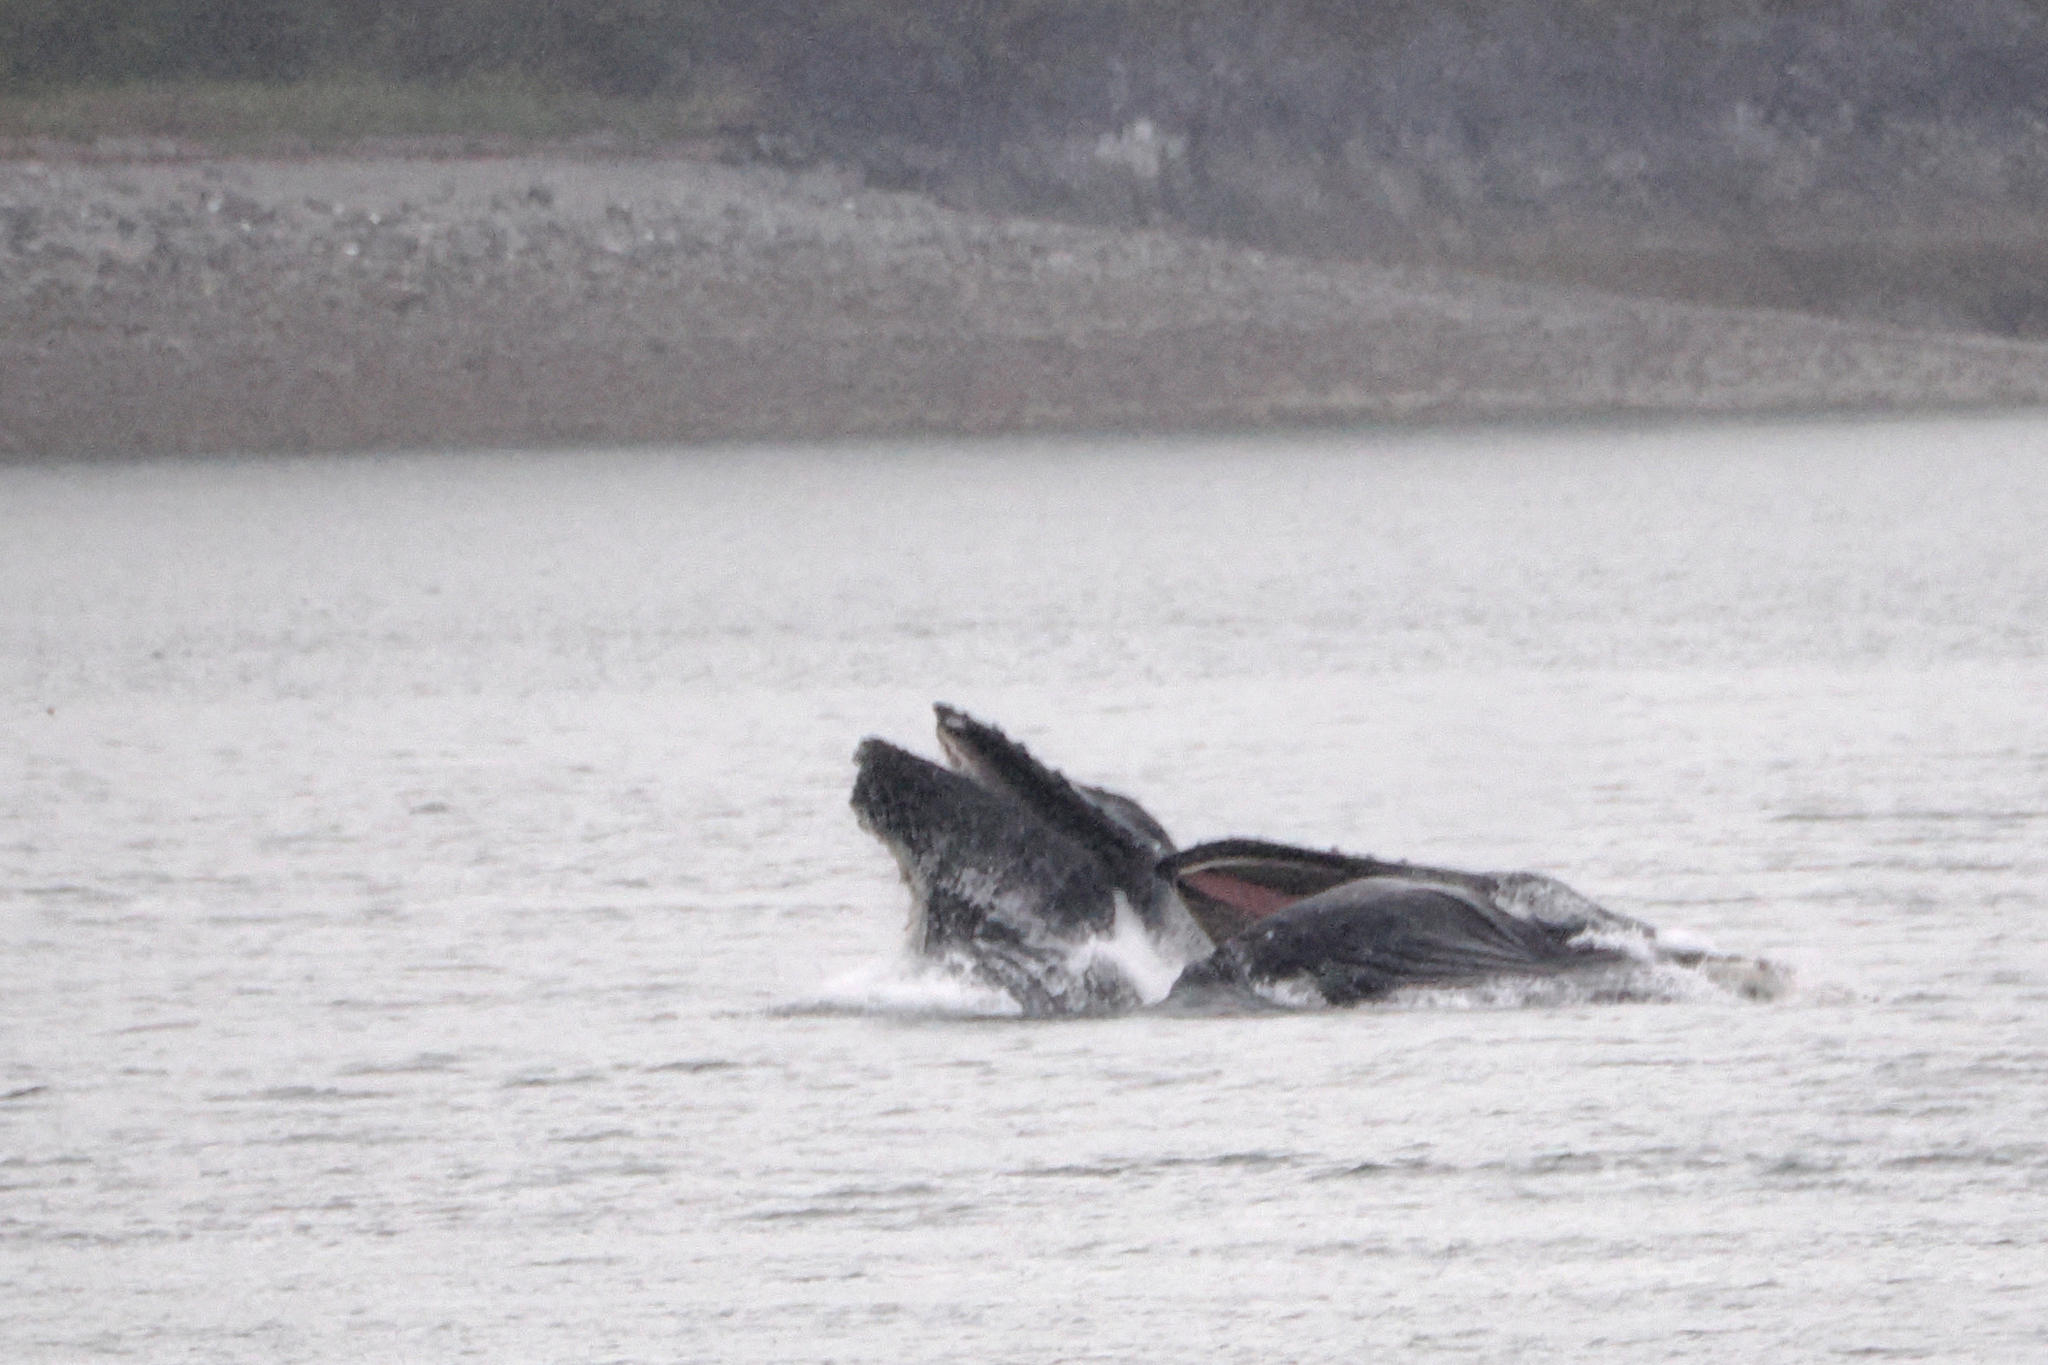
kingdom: Animalia
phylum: Chordata
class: Mammalia
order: Cetacea
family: Balaenopteridae
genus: Megaptera
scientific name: Megaptera novaeangliae
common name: Humpback whale
